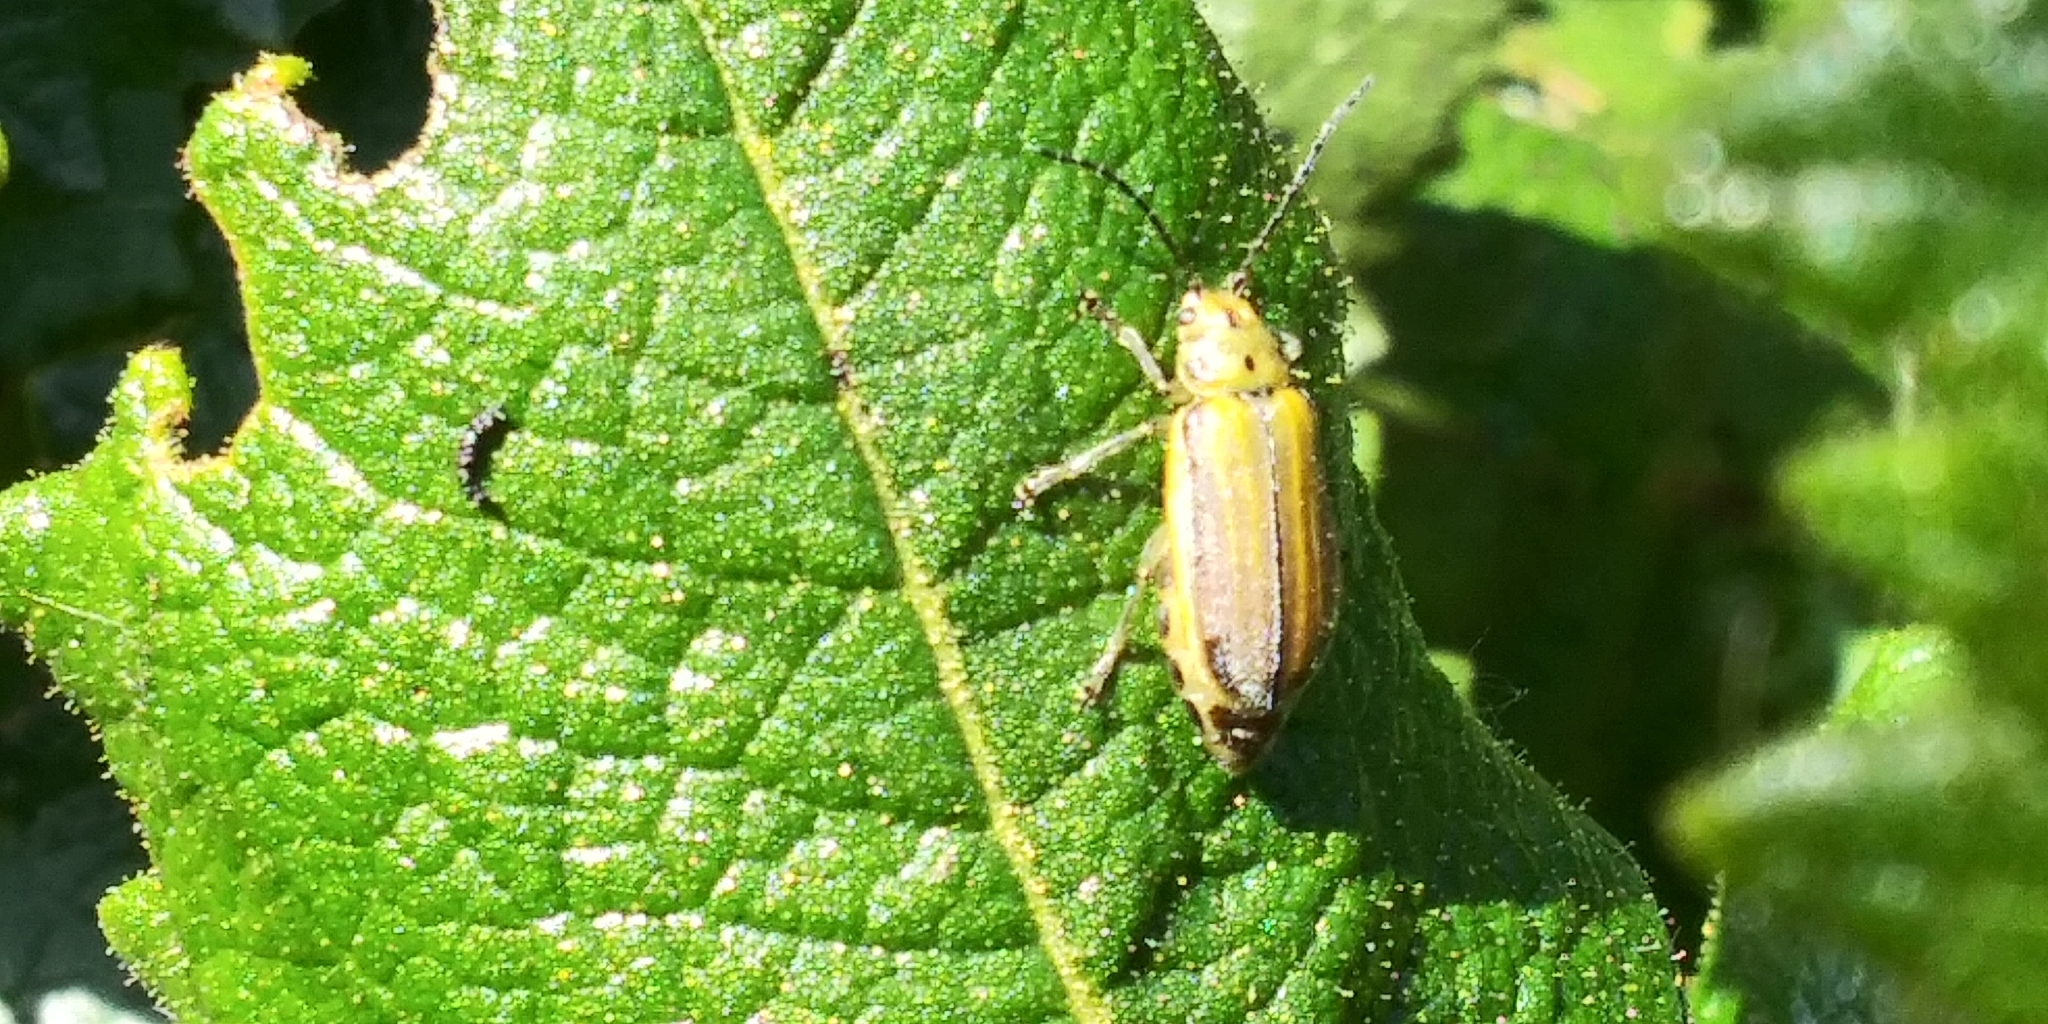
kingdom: Animalia
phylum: Arthropoda
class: Insecta
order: Coleoptera
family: Chrysomelidae
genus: Trirhabda
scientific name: Trirhabda eriodictyonis
